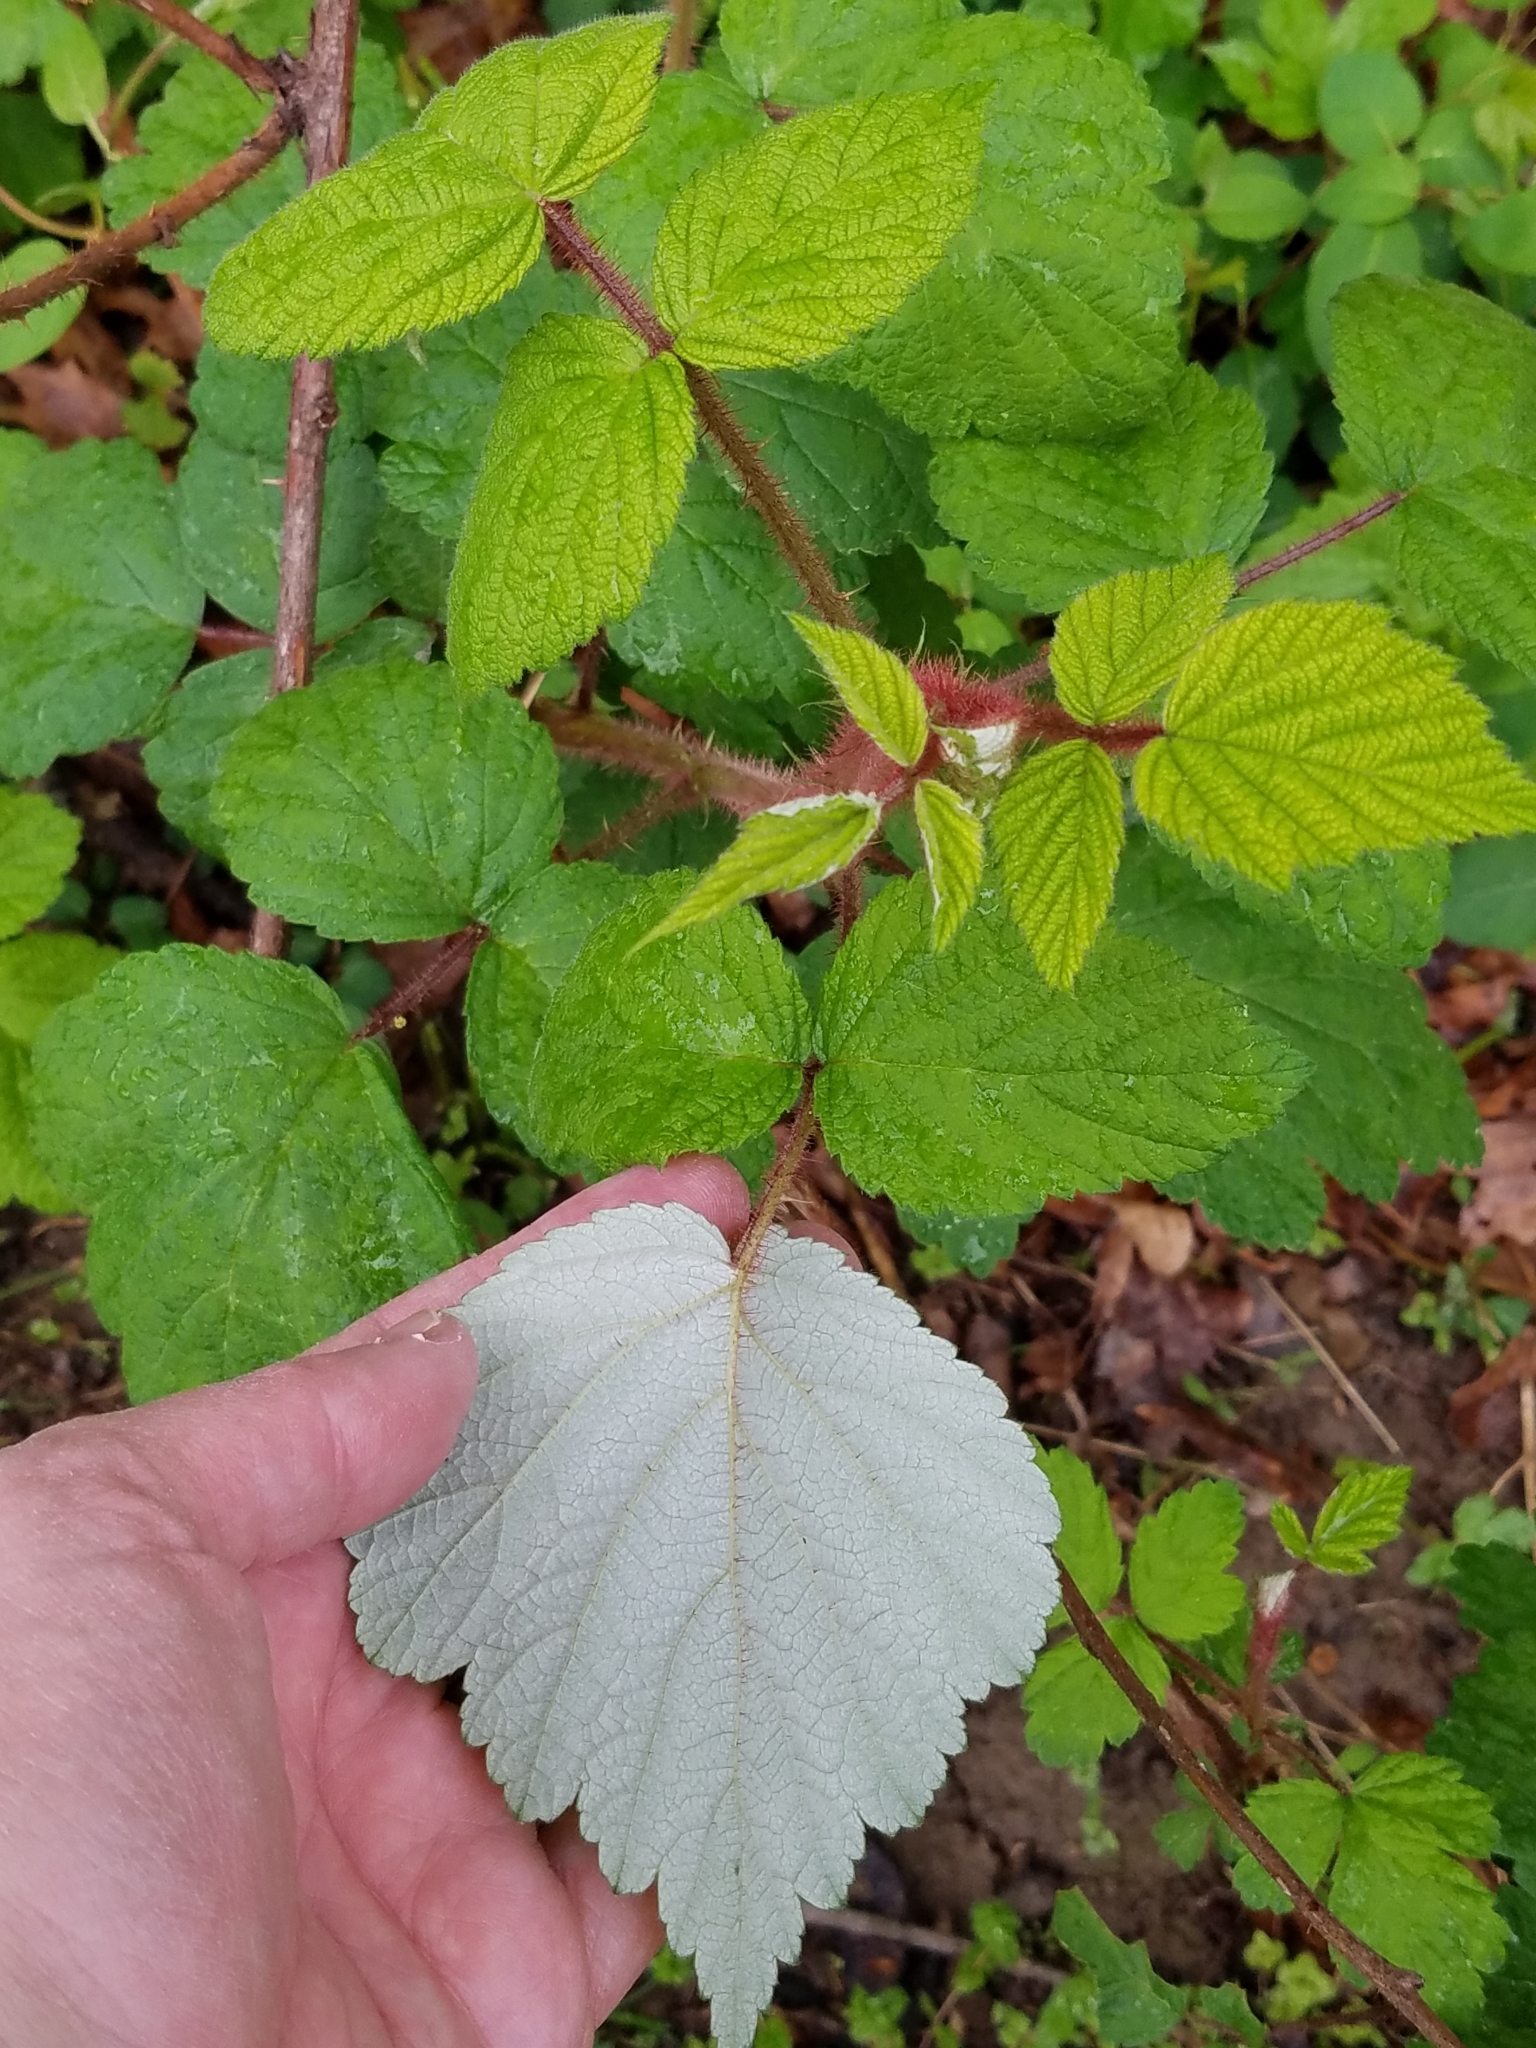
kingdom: Plantae
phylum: Tracheophyta
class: Magnoliopsida
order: Rosales
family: Rosaceae
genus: Rubus
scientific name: Rubus phoenicolasius
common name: Japanese wineberry
